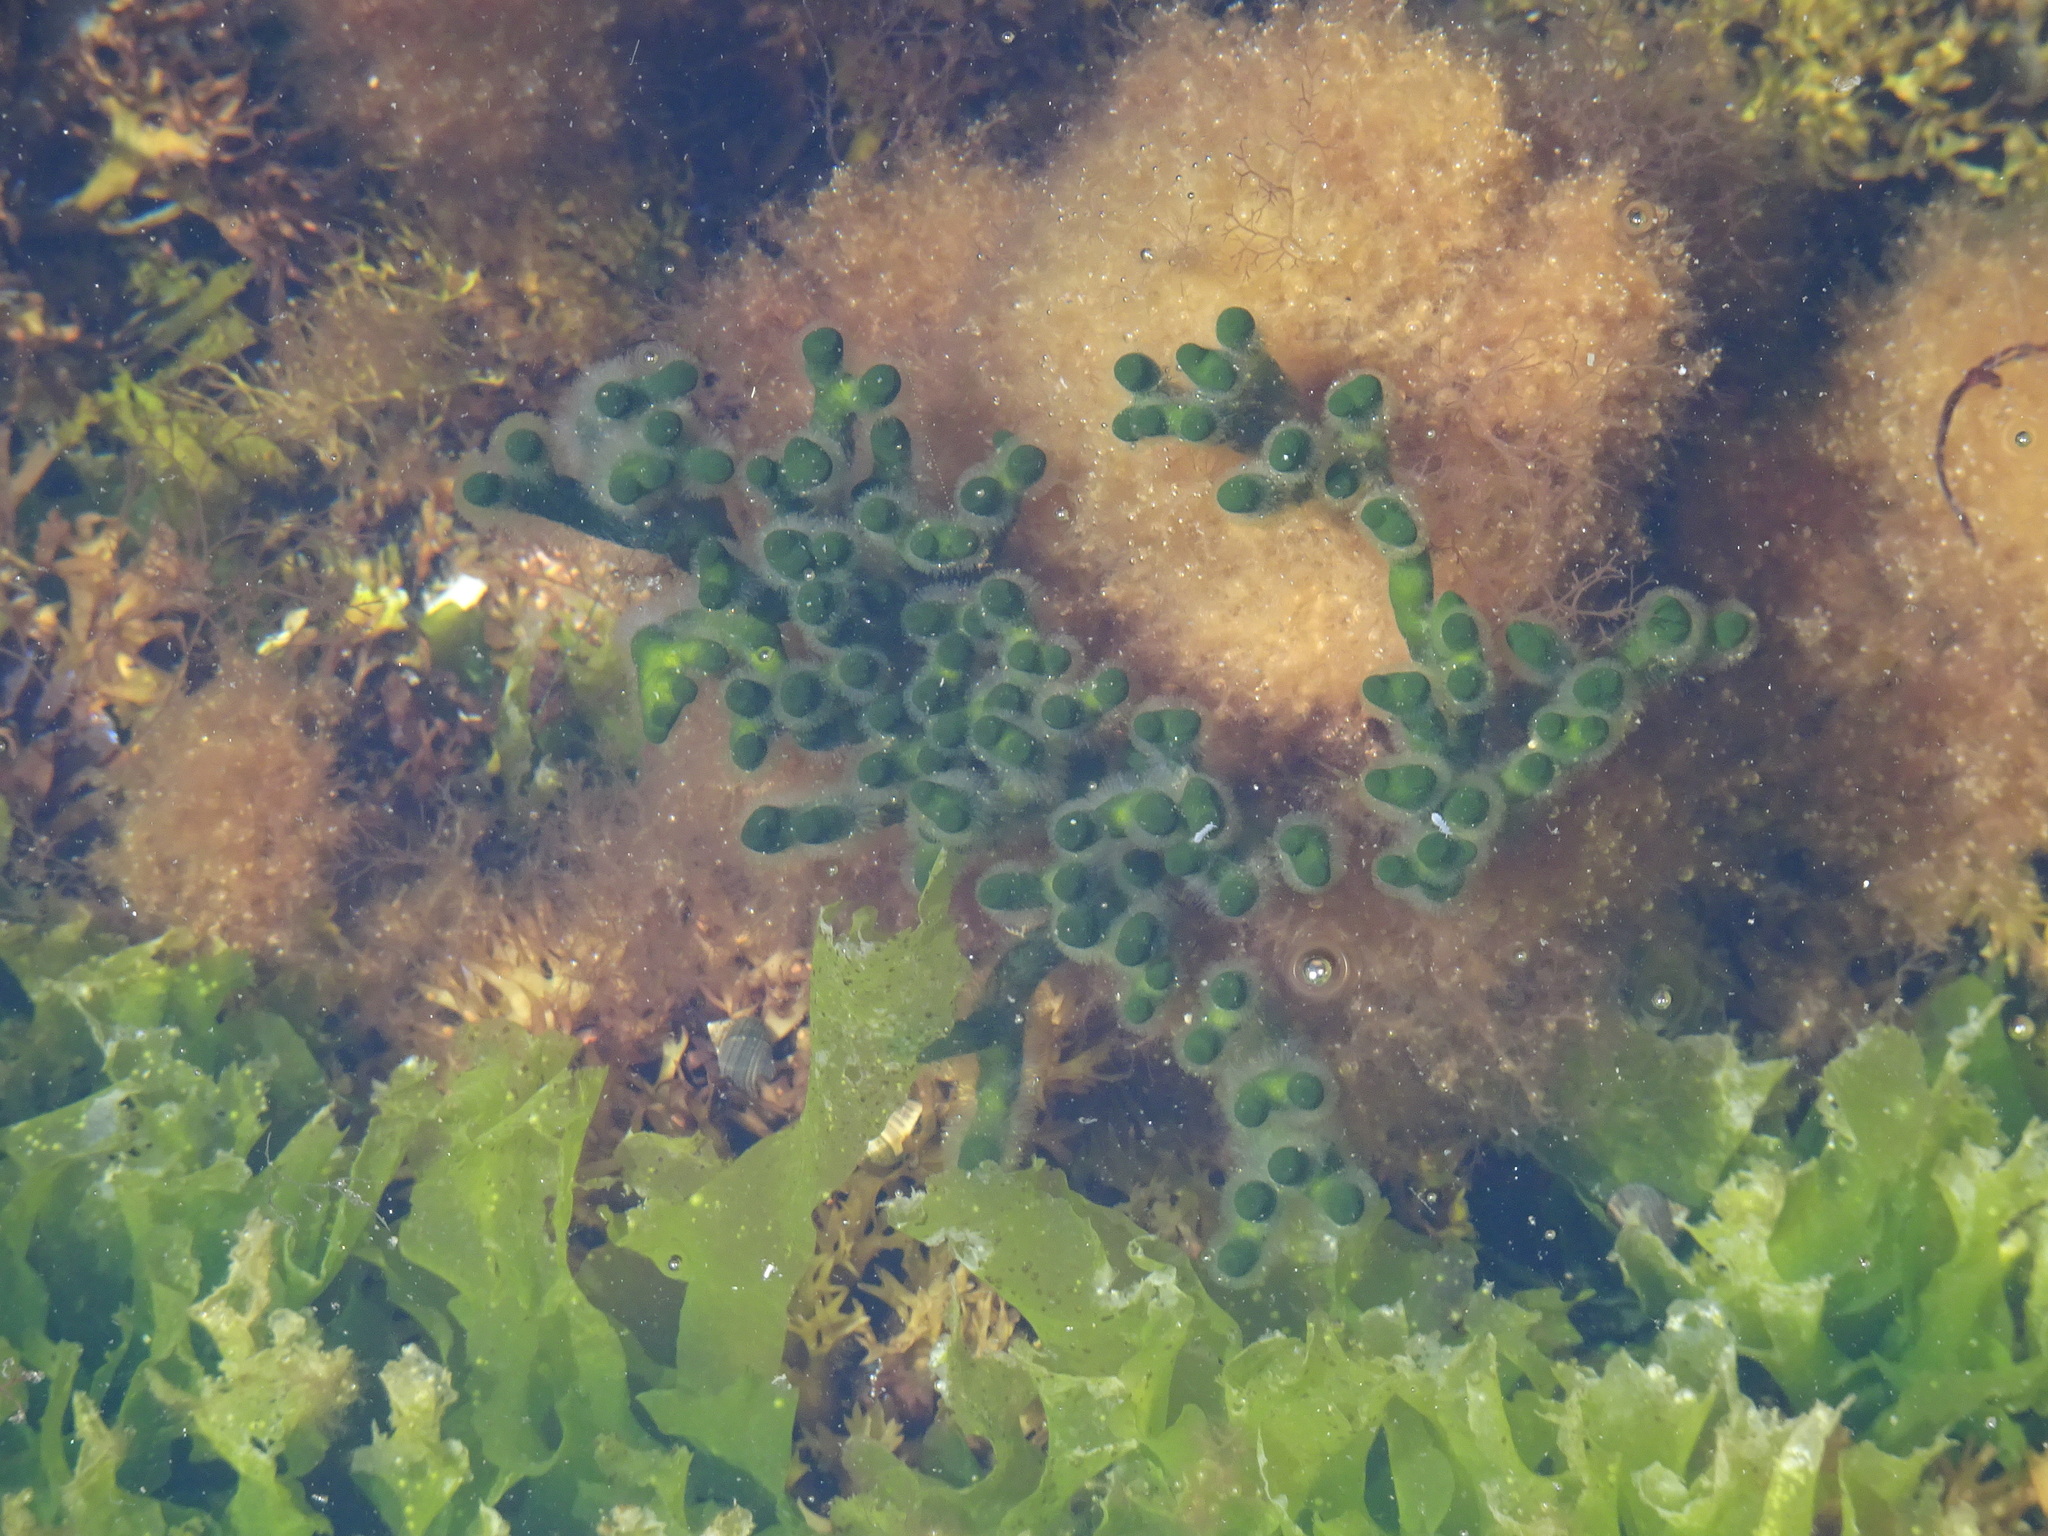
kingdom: Plantae
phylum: Chlorophyta
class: Ulvophyceae
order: Bryopsidales
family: Codiaceae
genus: Codium
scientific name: Codium fragile
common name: Dead man's fingers
